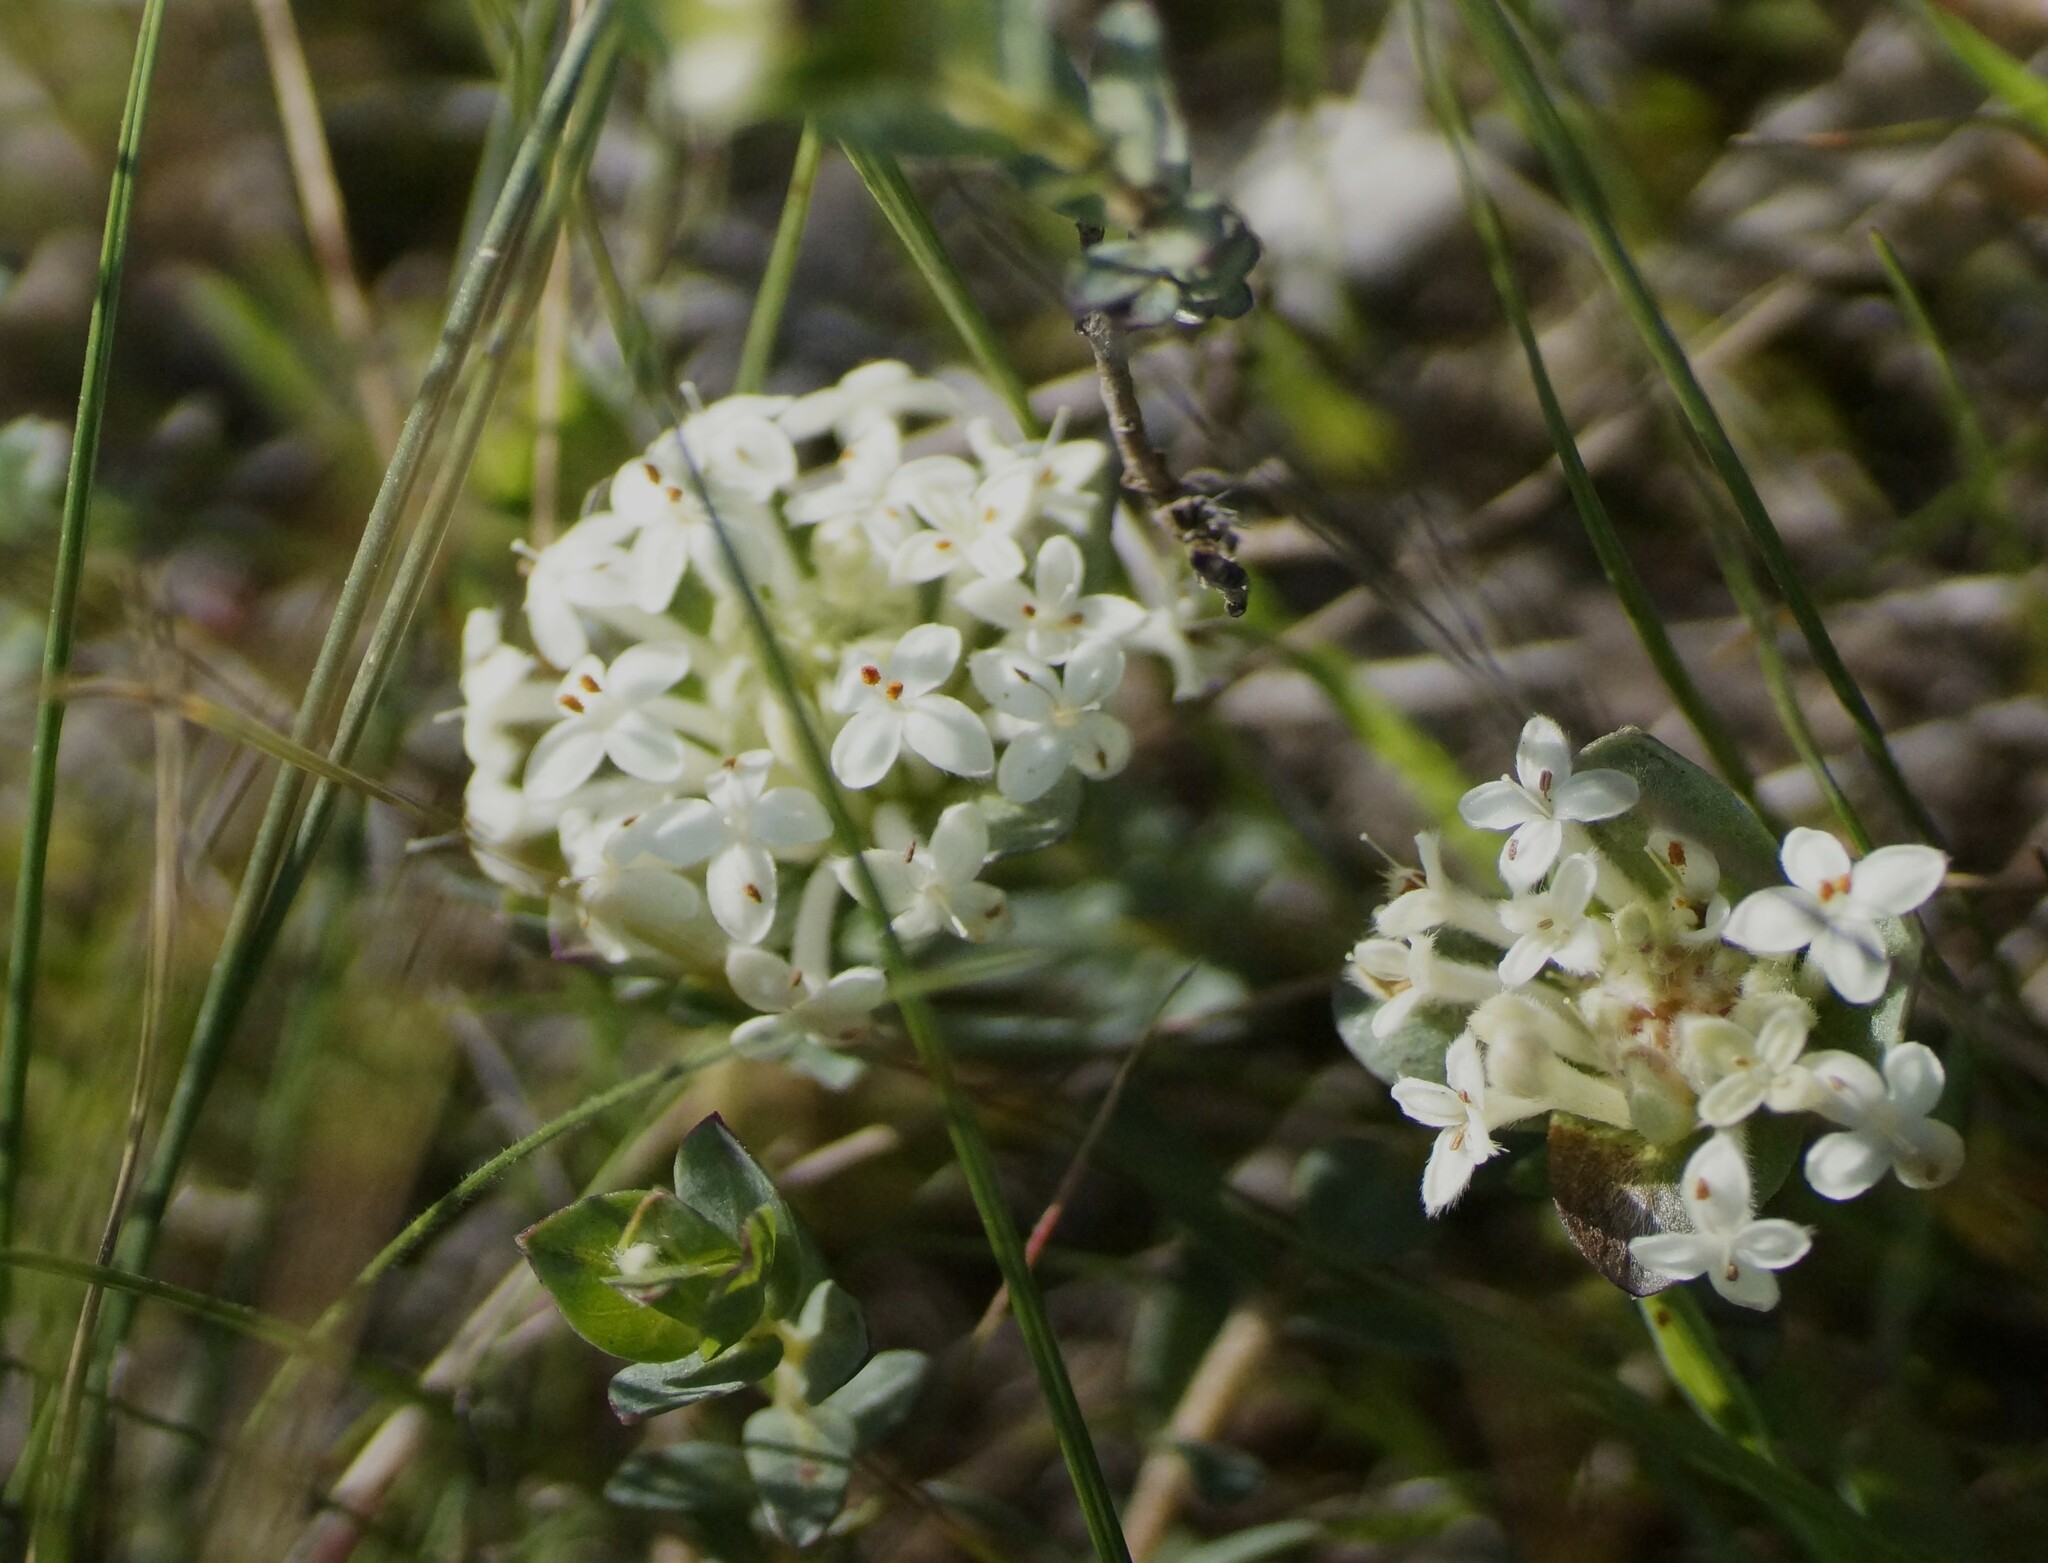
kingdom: Plantae
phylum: Tracheophyta
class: Magnoliopsida
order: Malvales
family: Thymelaeaceae
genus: Pimelea
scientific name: Pimelea humilis
